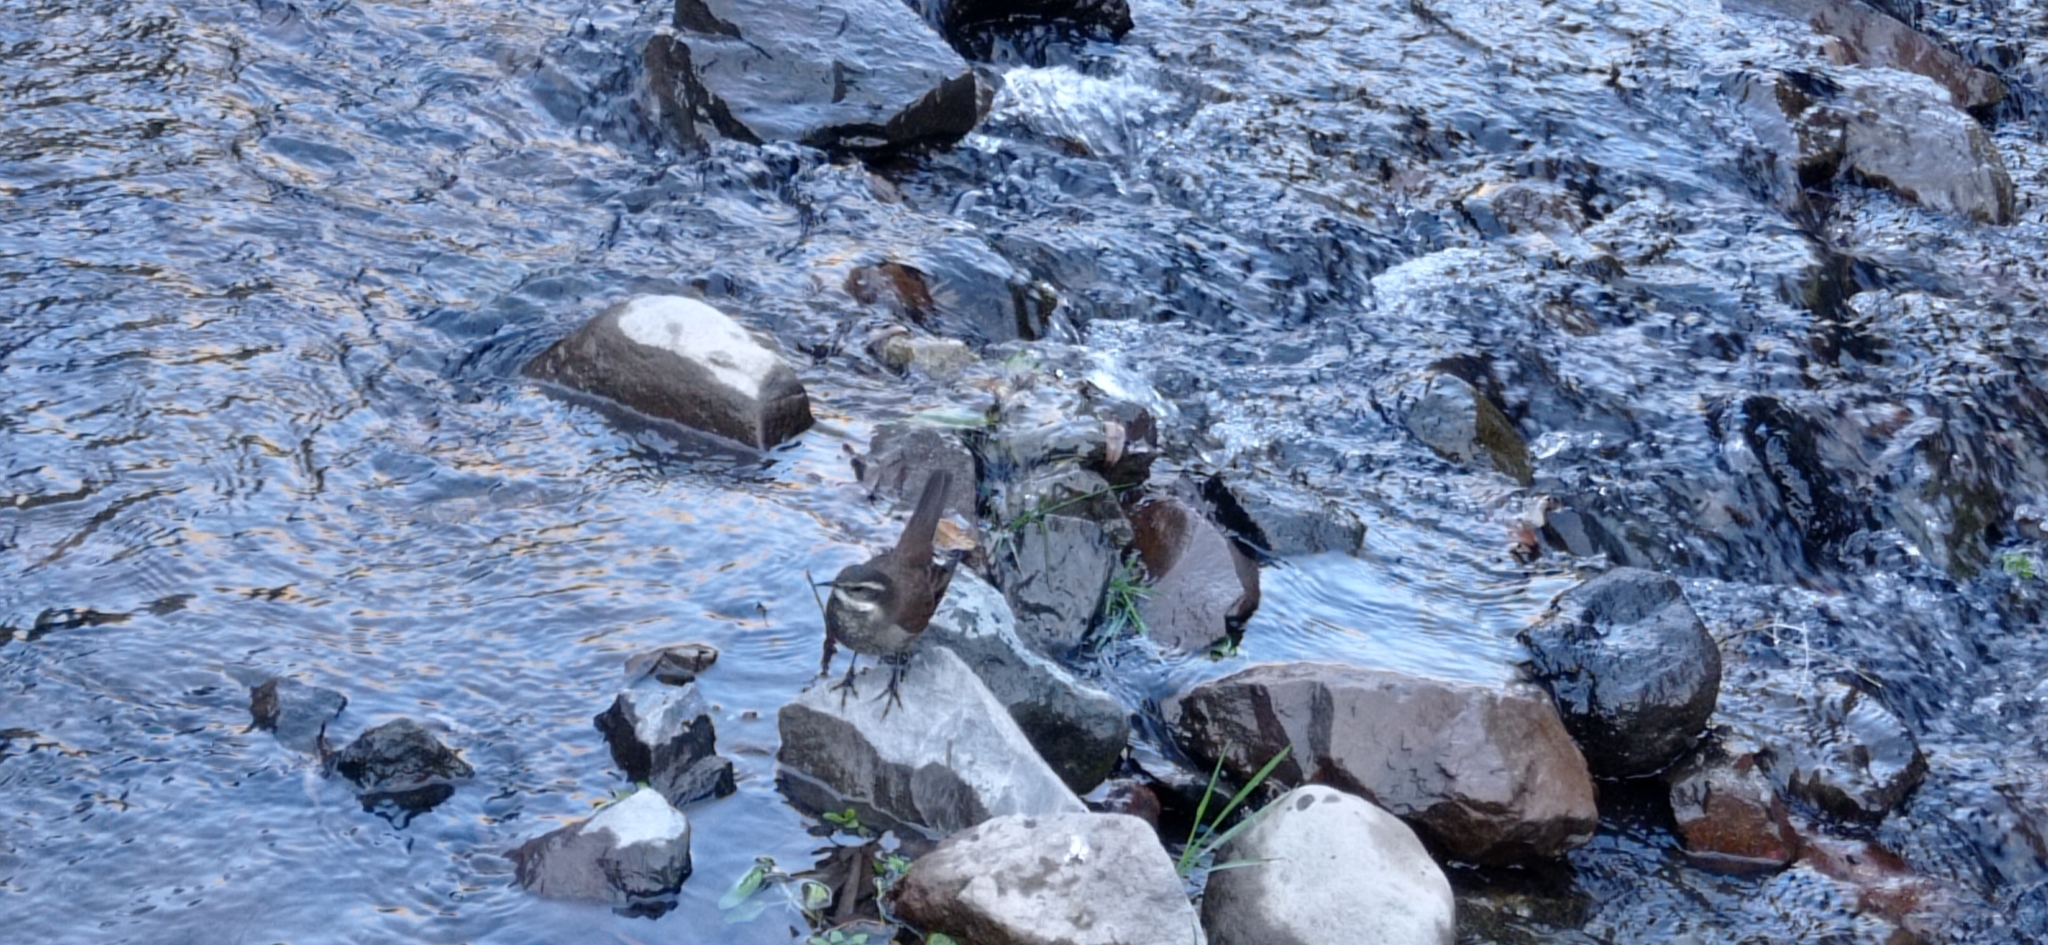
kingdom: Animalia
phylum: Chordata
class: Aves
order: Passeriformes
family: Furnariidae
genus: Cinclodes
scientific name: Cinclodes oustaleti
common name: Grey-flanked cinclodes
